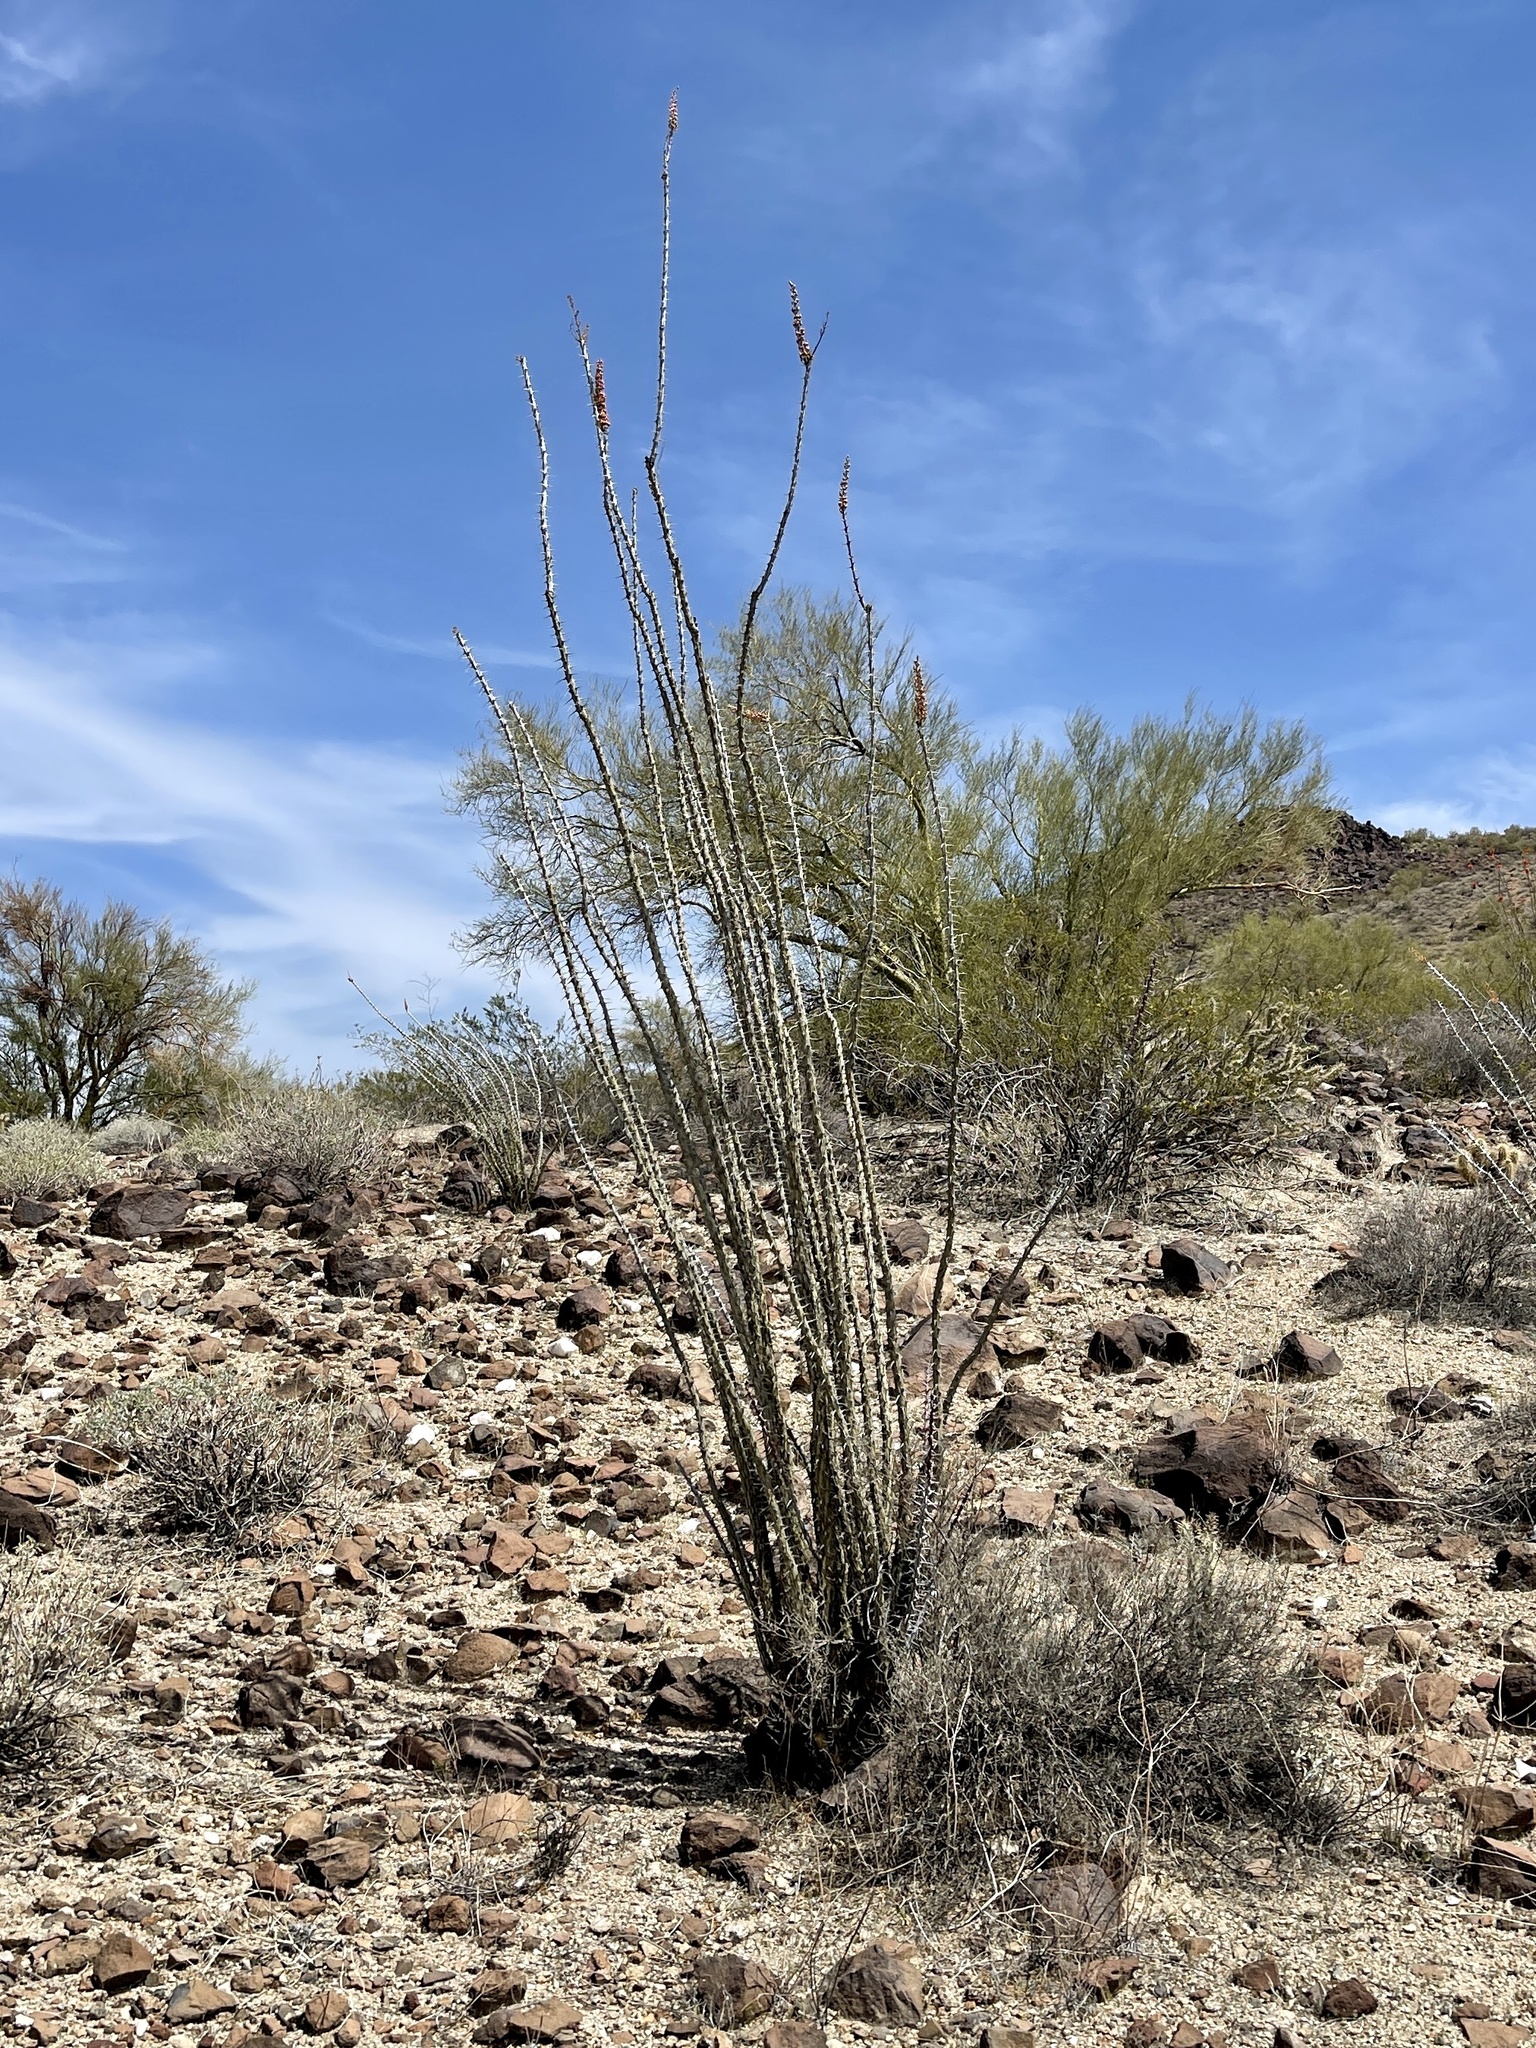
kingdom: Plantae
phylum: Tracheophyta
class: Magnoliopsida
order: Ericales
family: Fouquieriaceae
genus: Fouquieria
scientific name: Fouquieria splendens
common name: Vine-cactus
